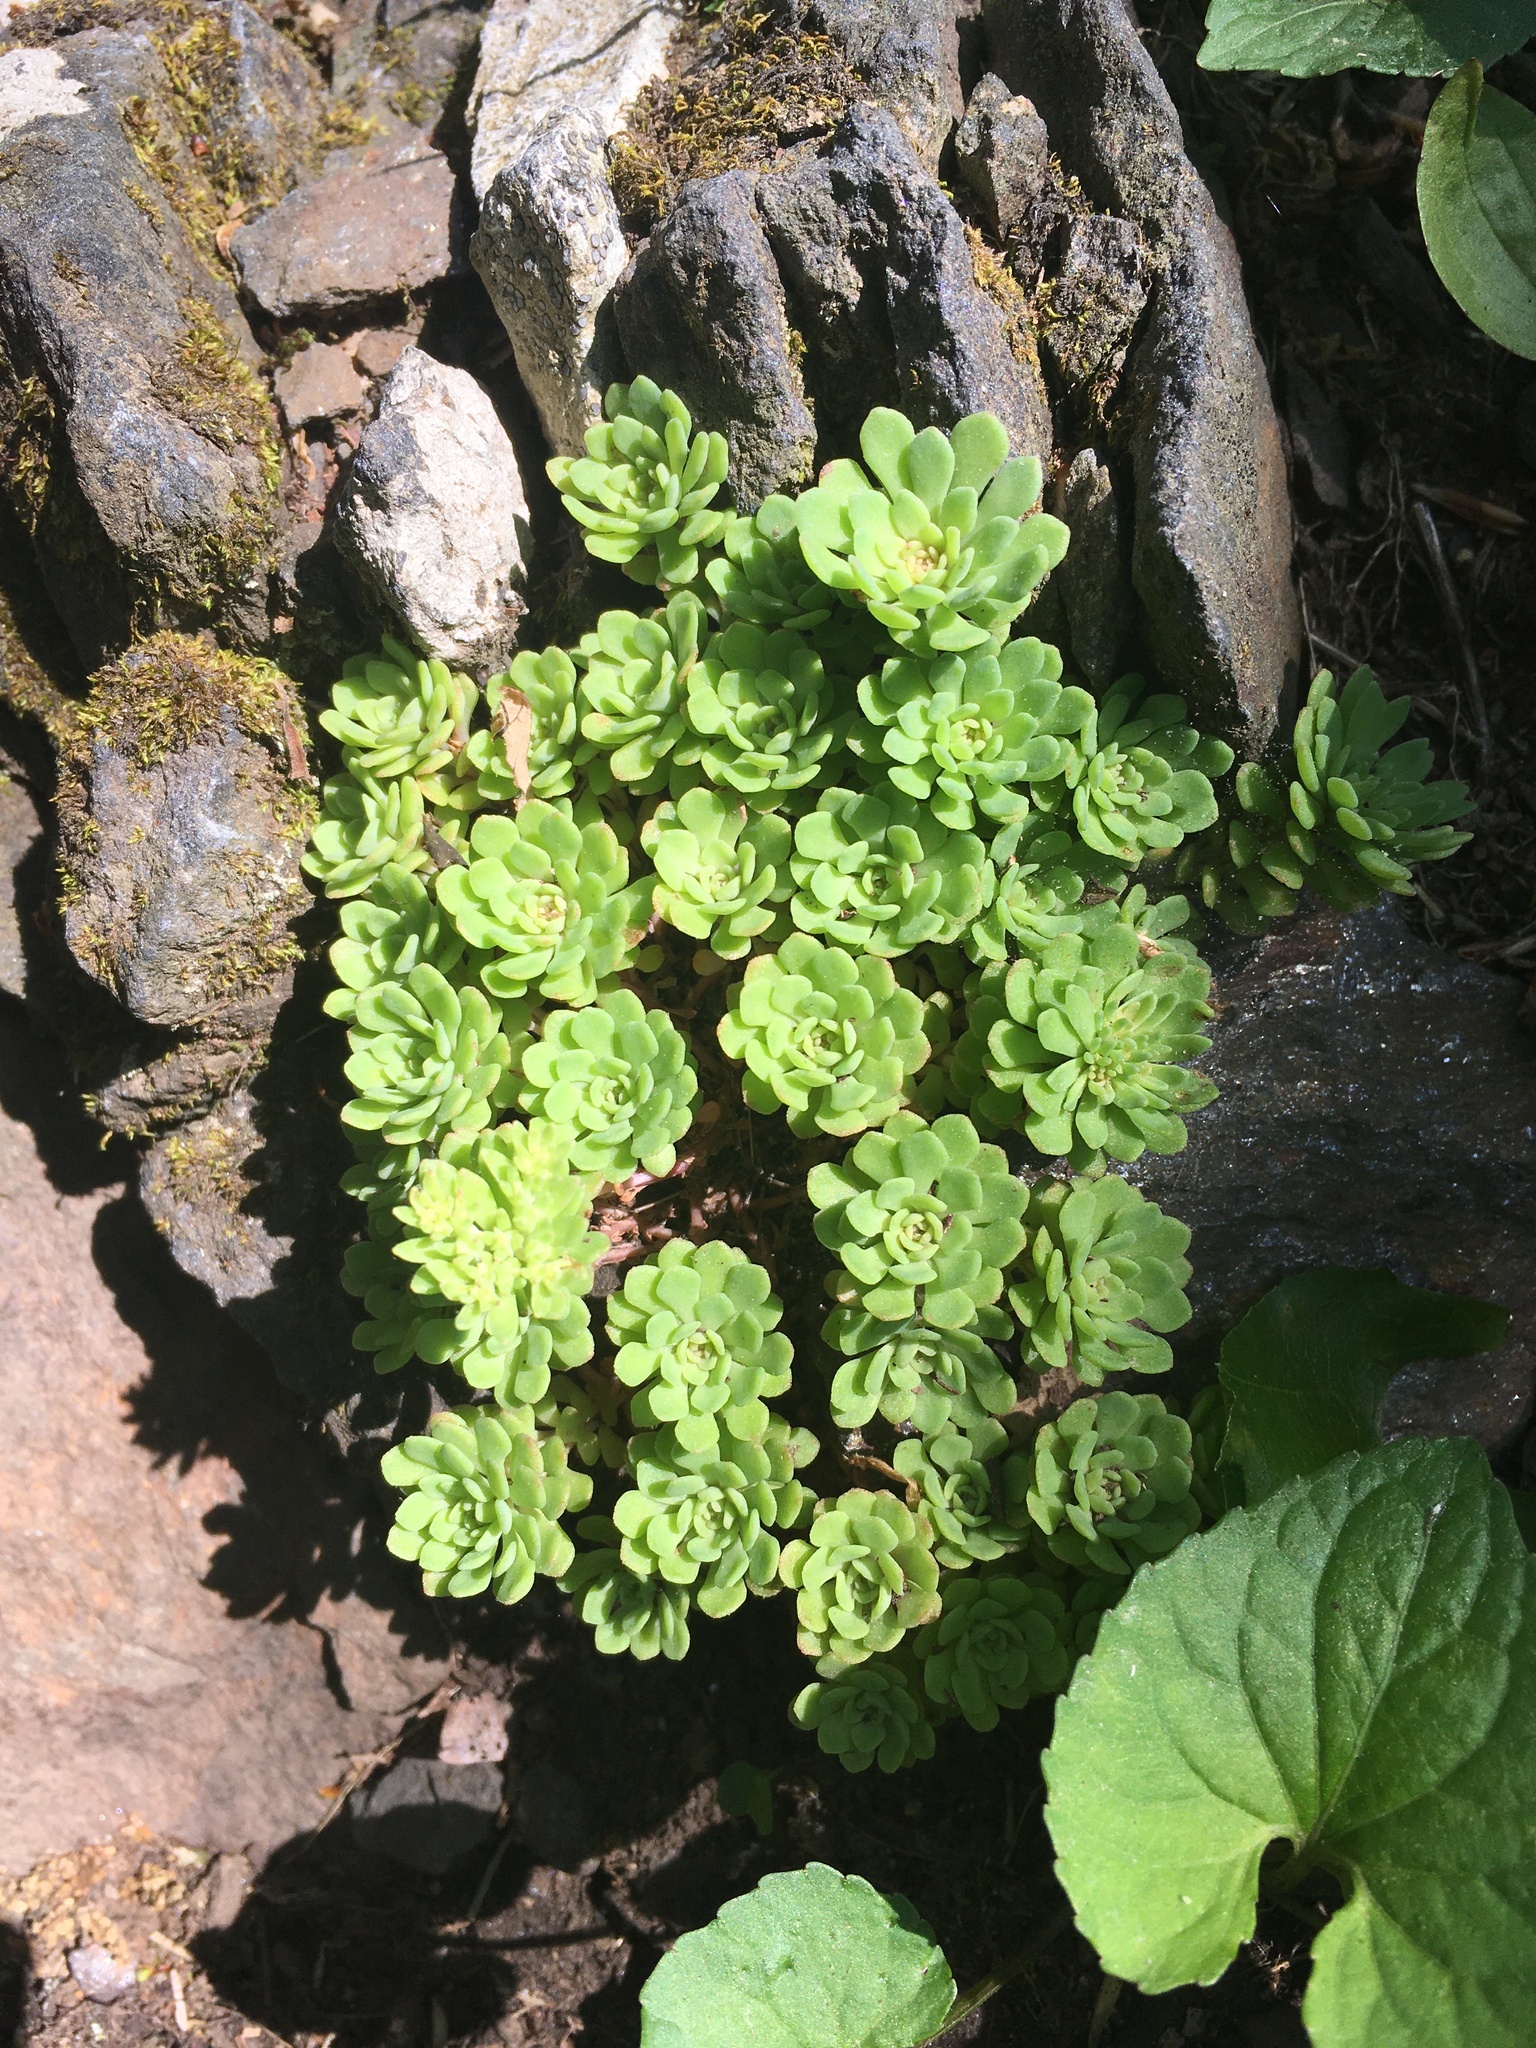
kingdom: Plantae
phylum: Tracheophyta
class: Magnoliopsida
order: Saxifragales
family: Crassulaceae
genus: Sedum
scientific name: Sedum glaucophyllum
